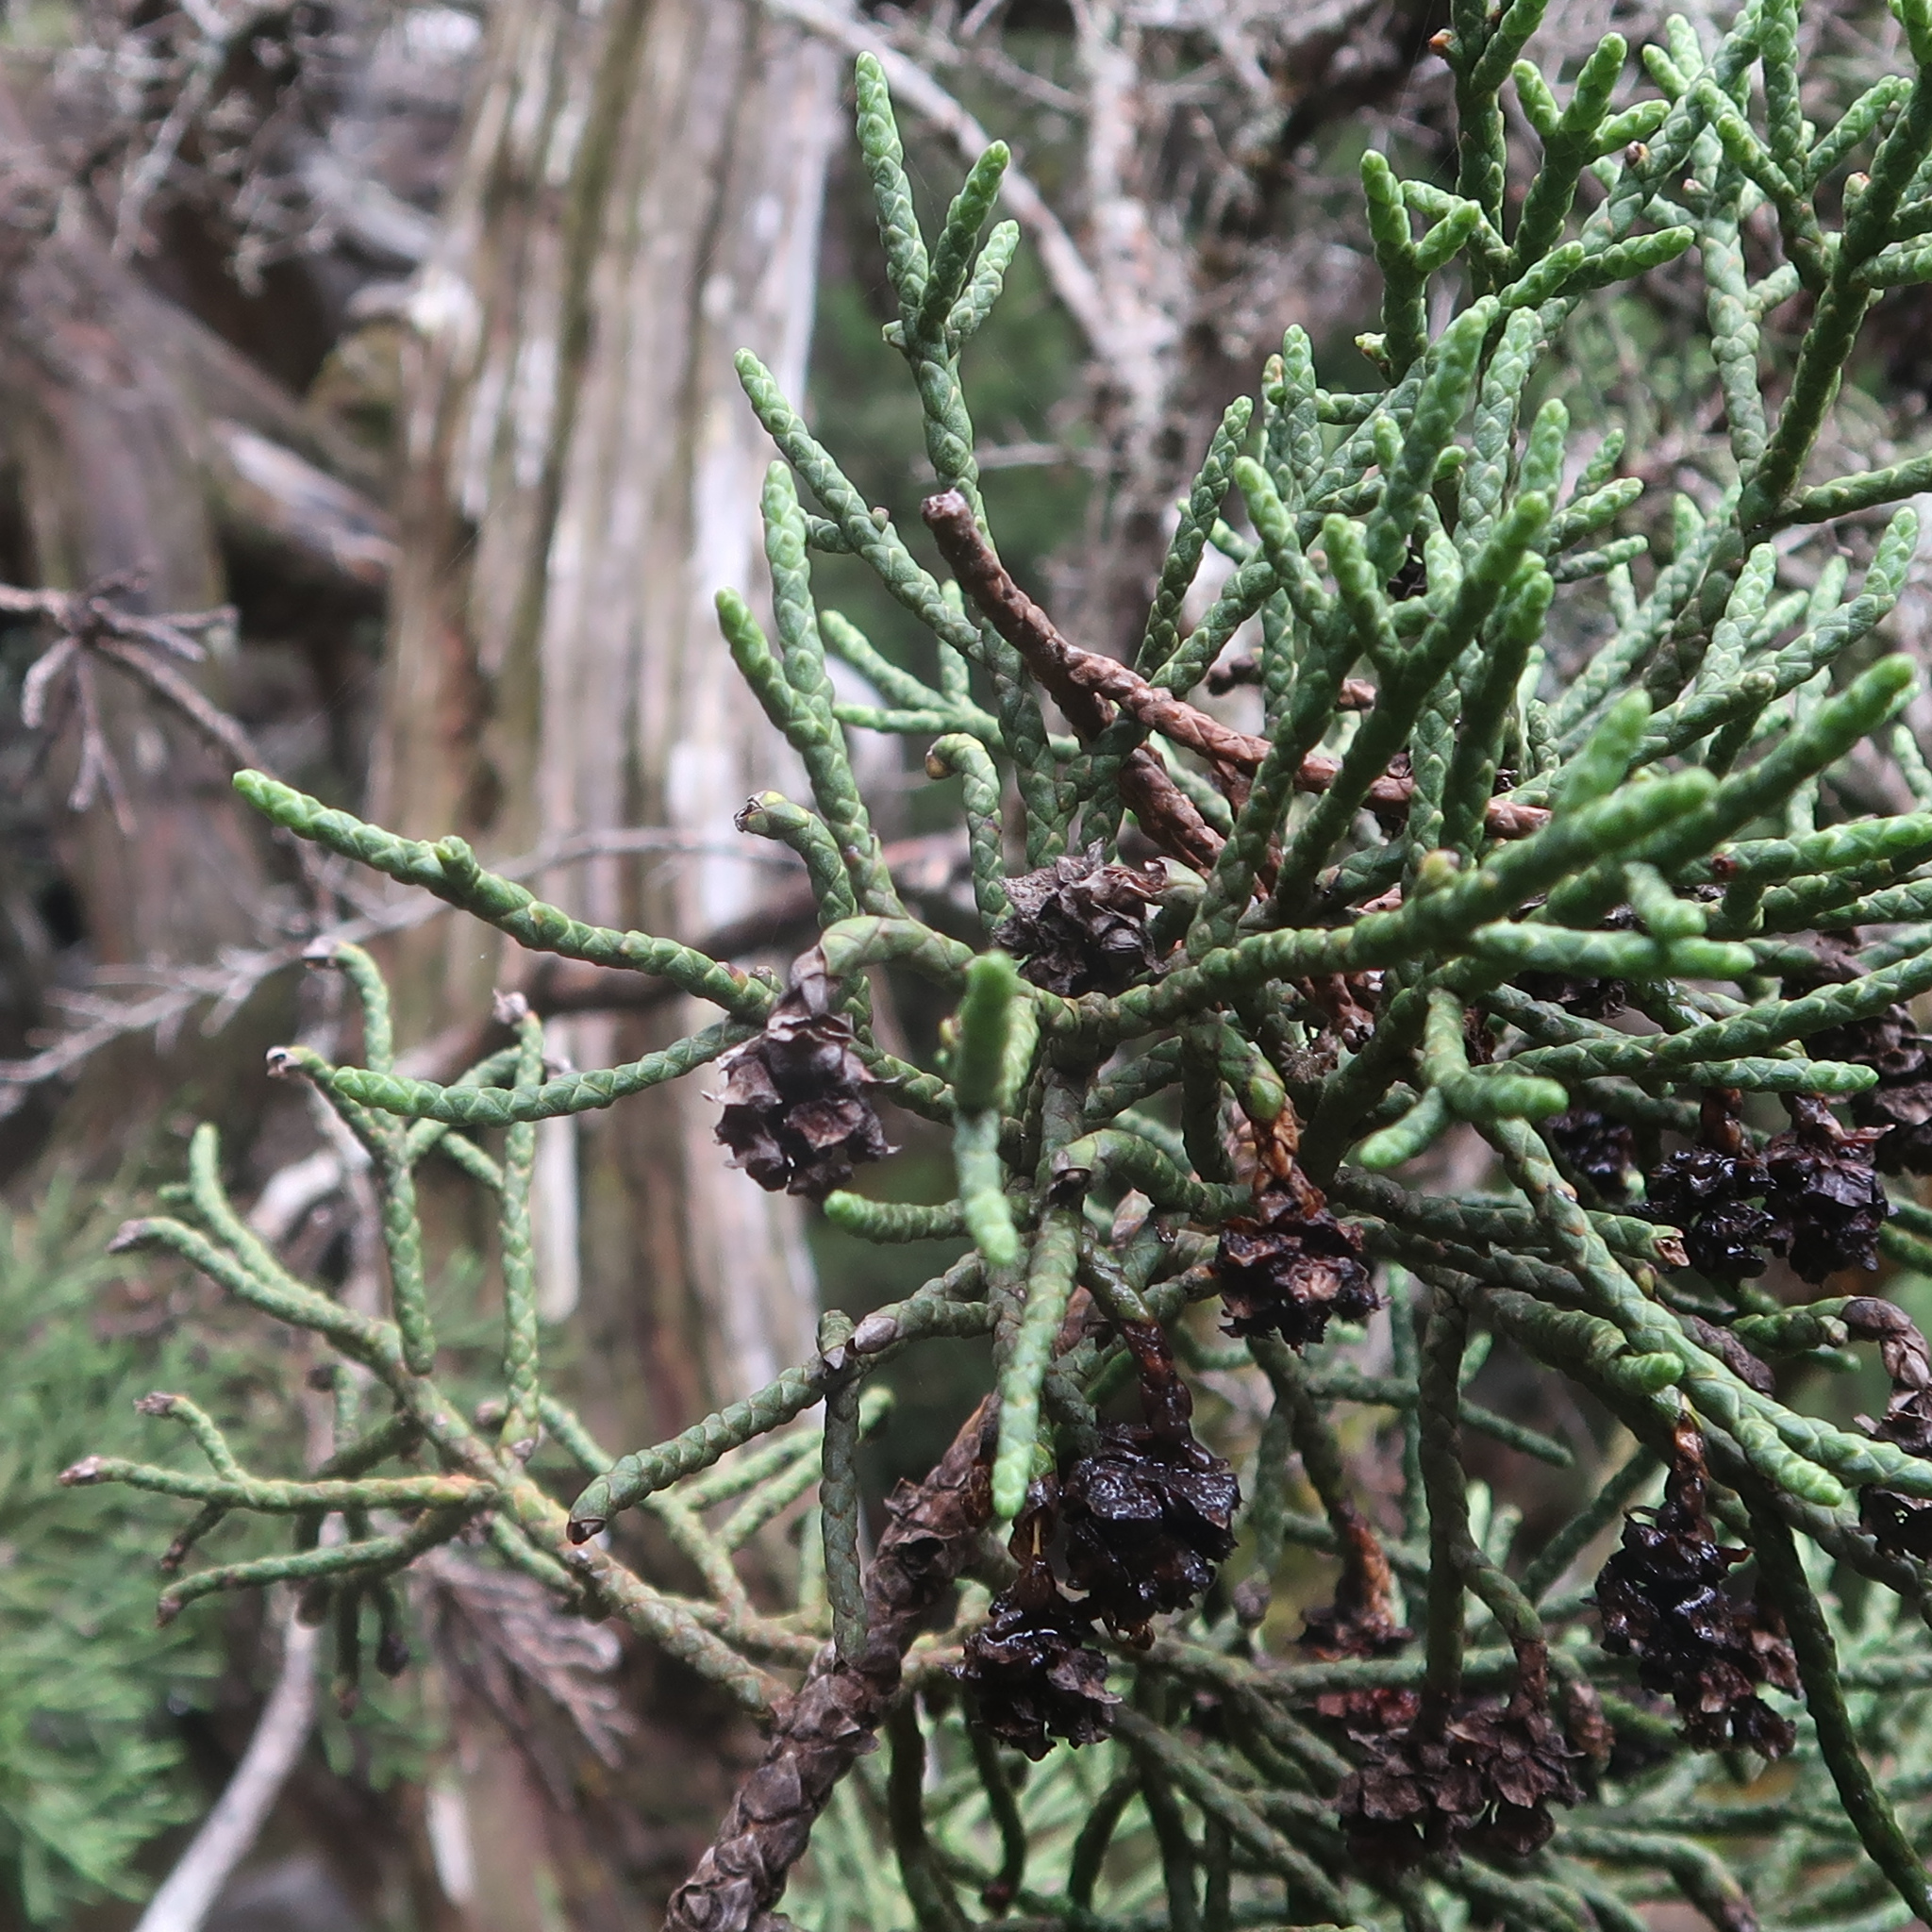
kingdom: Plantae
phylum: Tracheophyta
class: Pinopsida
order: Pinales
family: Cupressaceae
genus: Athrotaxis
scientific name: Athrotaxis cupressoides
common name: Tasmanian pencil pine
